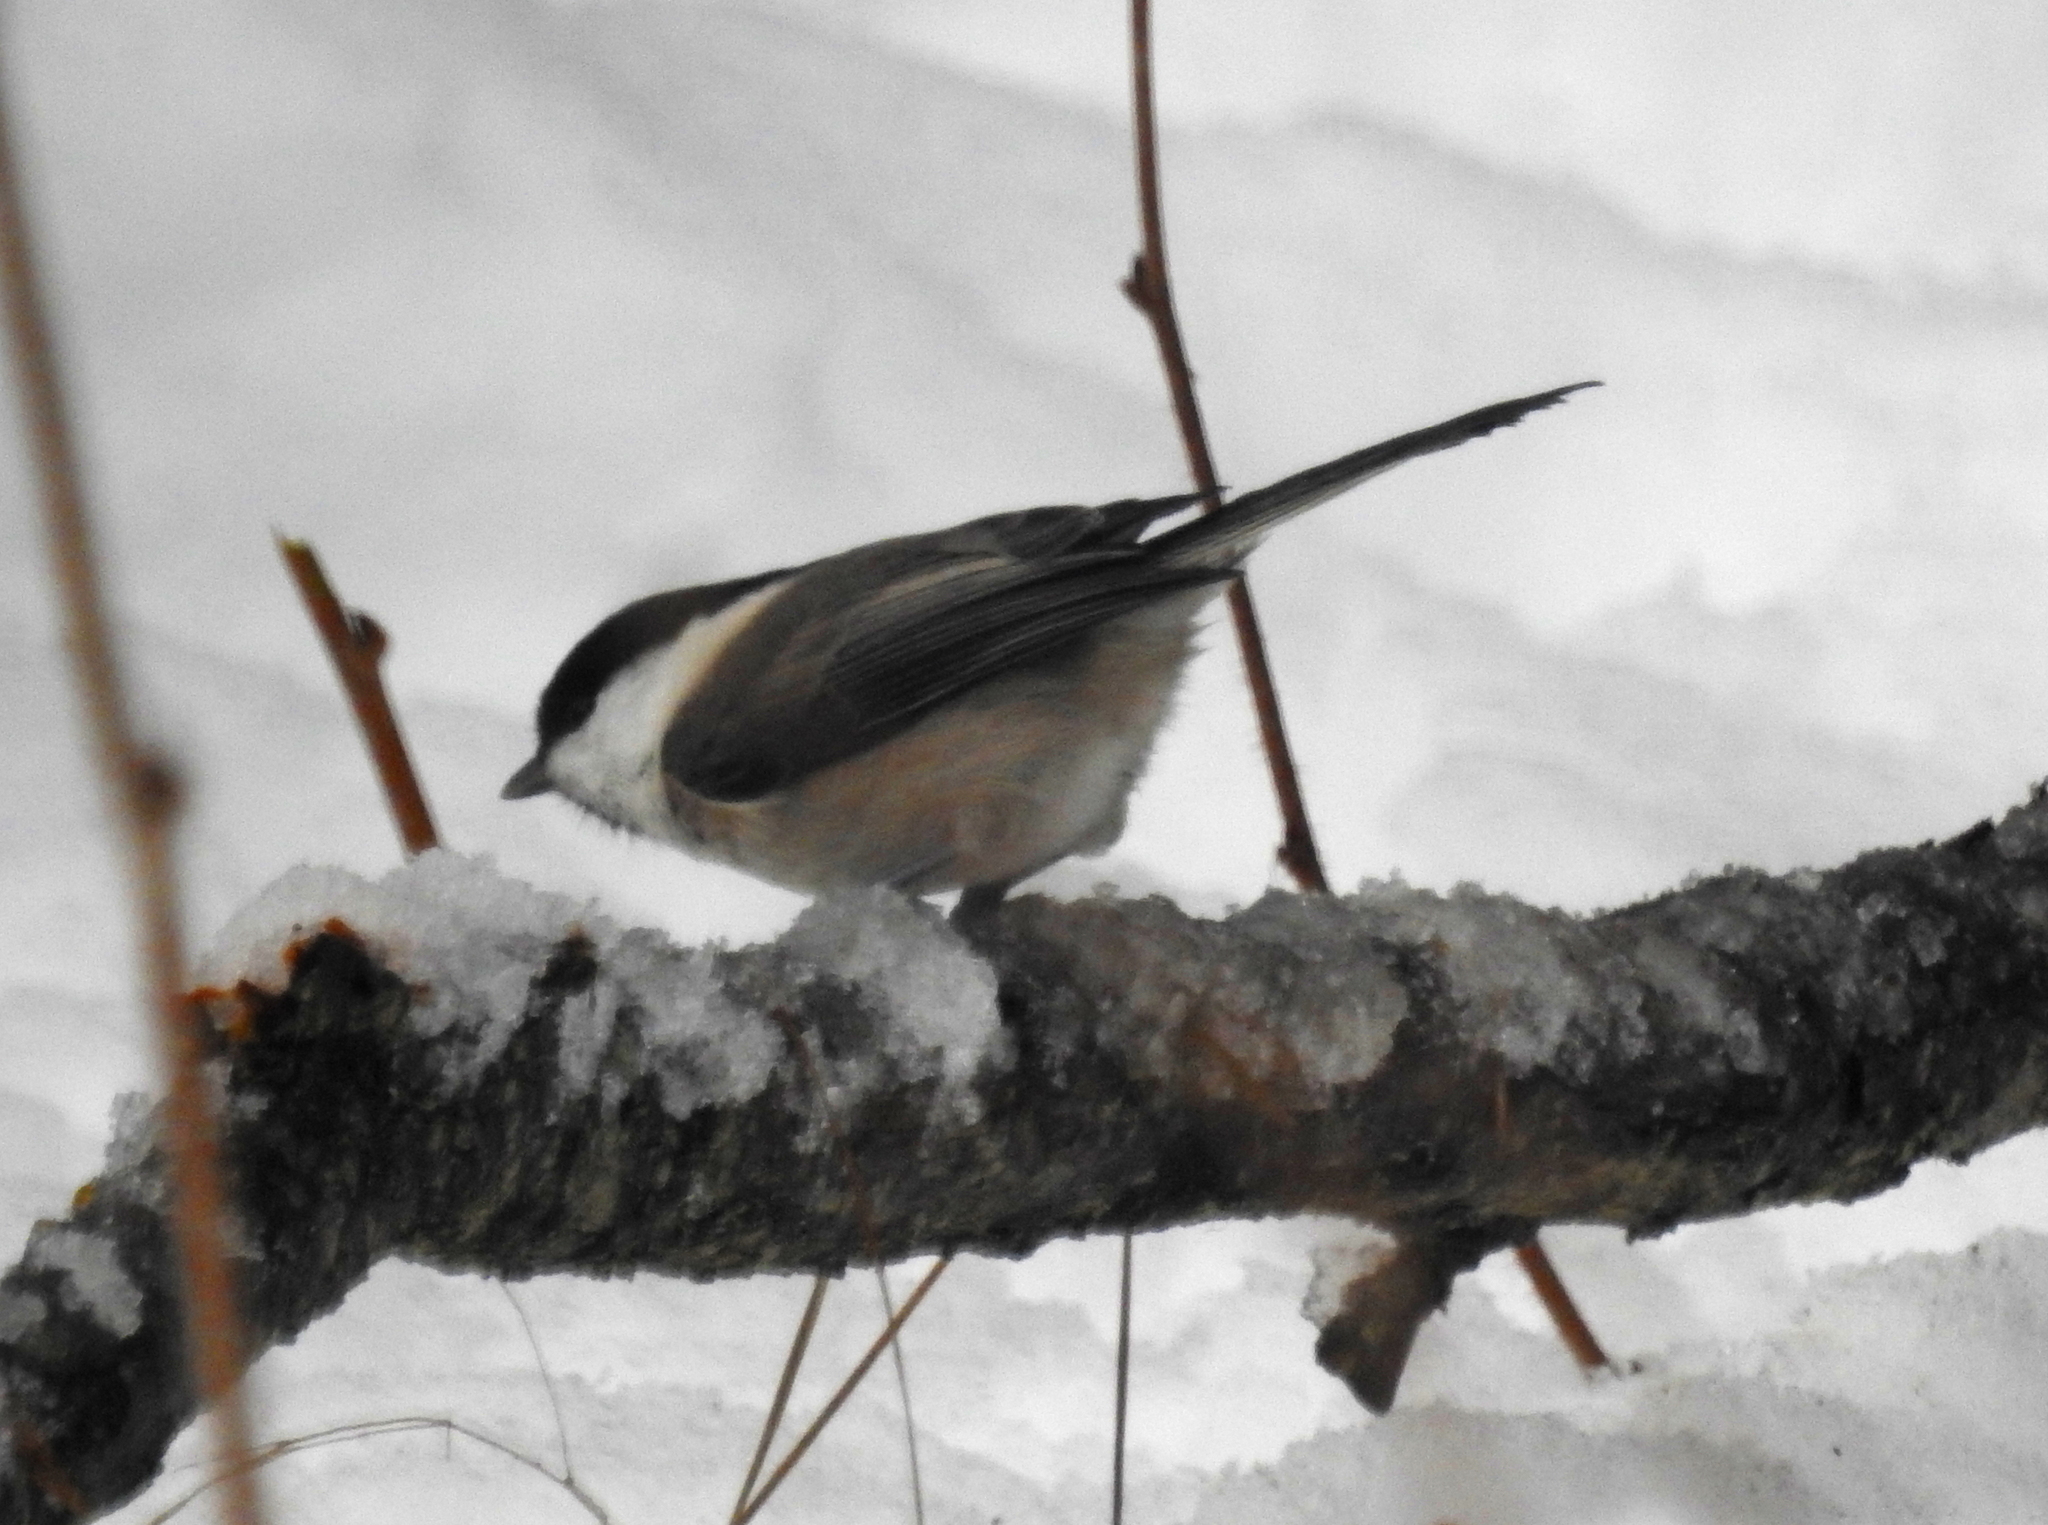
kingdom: Animalia
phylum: Chordata
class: Aves
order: Passeriformes
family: Paridae
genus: Poecile
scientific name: Poecile montanus
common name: Willow tit
